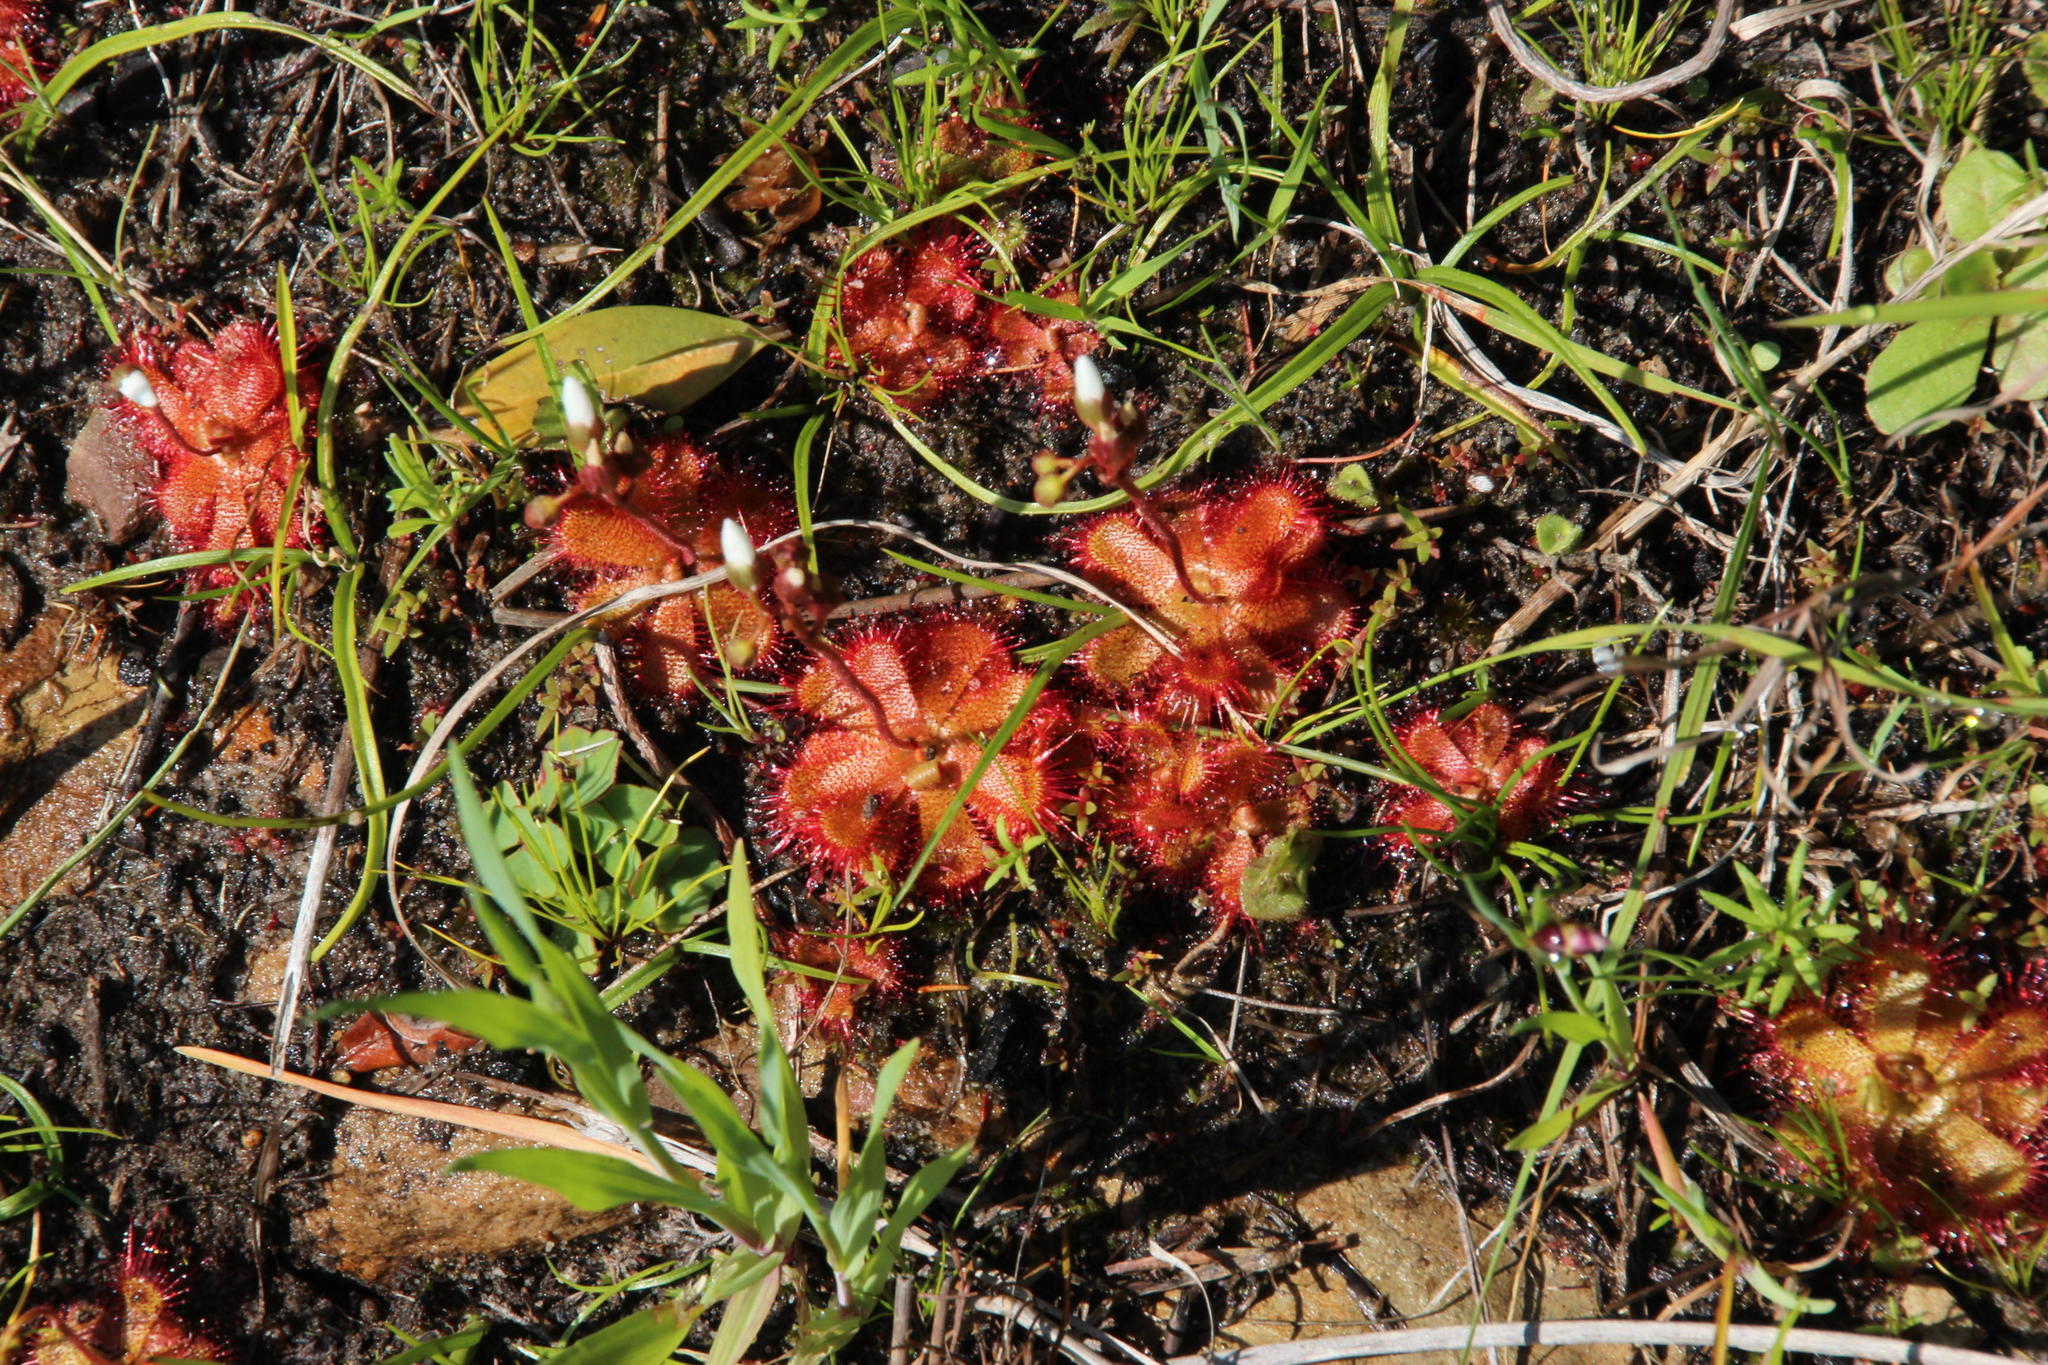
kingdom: Plantae
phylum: Tracheophyta
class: Magnoliopsida
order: Caryophyllales
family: Droseraceae
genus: Drosera
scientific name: Drosera trinervia
